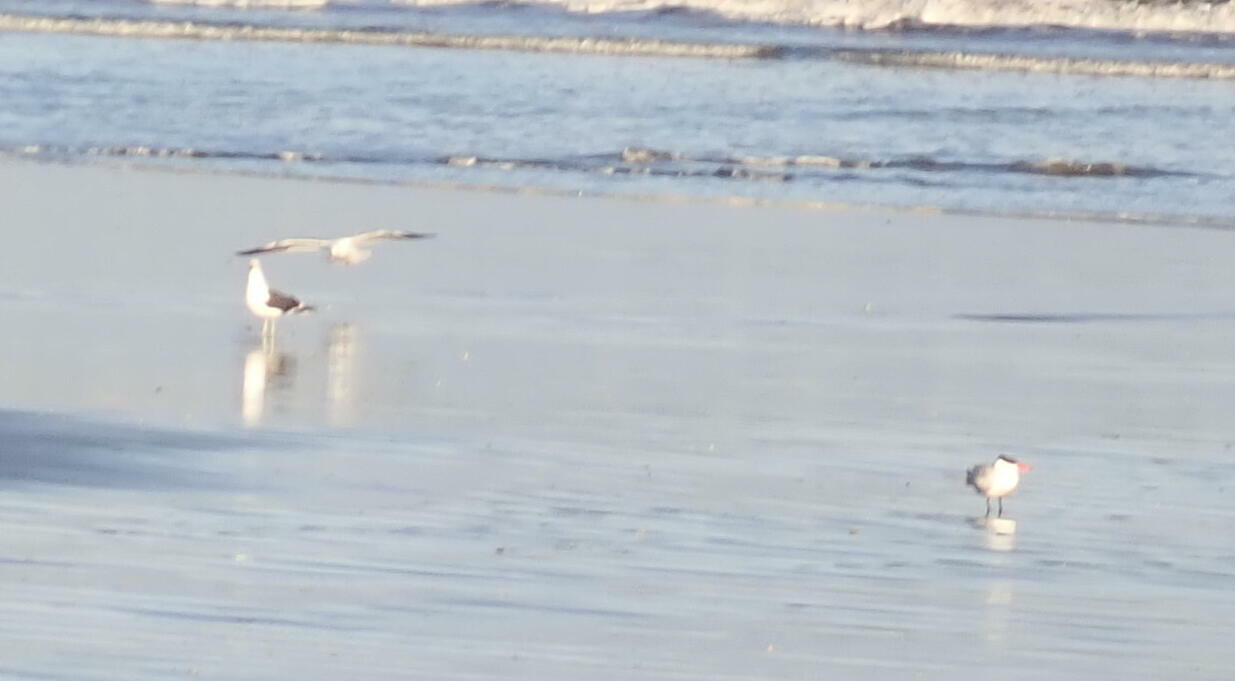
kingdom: Animalia
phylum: Chordata
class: Aves
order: Charadriiformes
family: Laridae
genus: Hydroprogne
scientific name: Hydroprogne caspia
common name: Caspian tern
